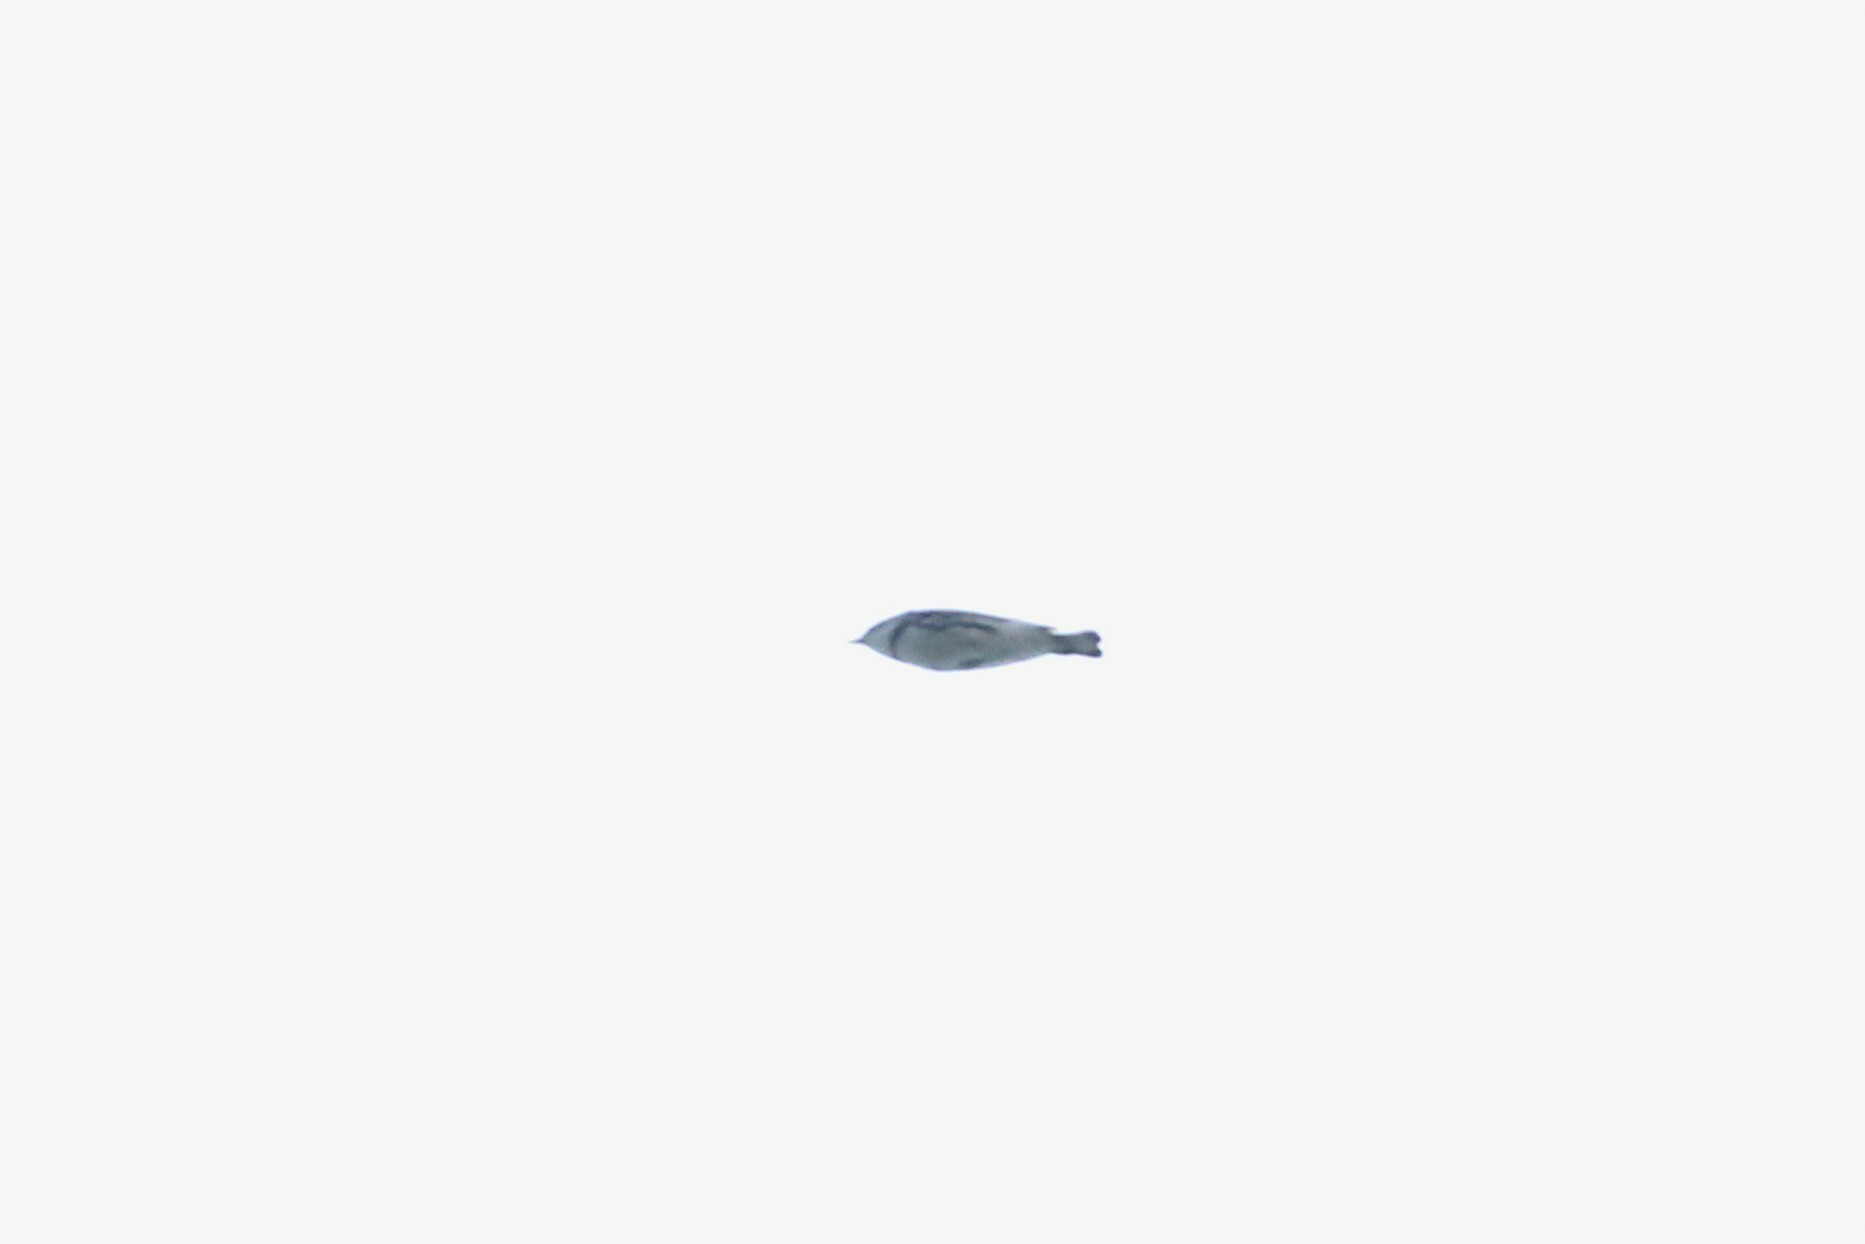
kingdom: Animalia
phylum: Chordata
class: Aves
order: Passeriformes
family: Parulidae
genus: Setophaga
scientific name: Setophaga cerulea
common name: Cerulean warbler
